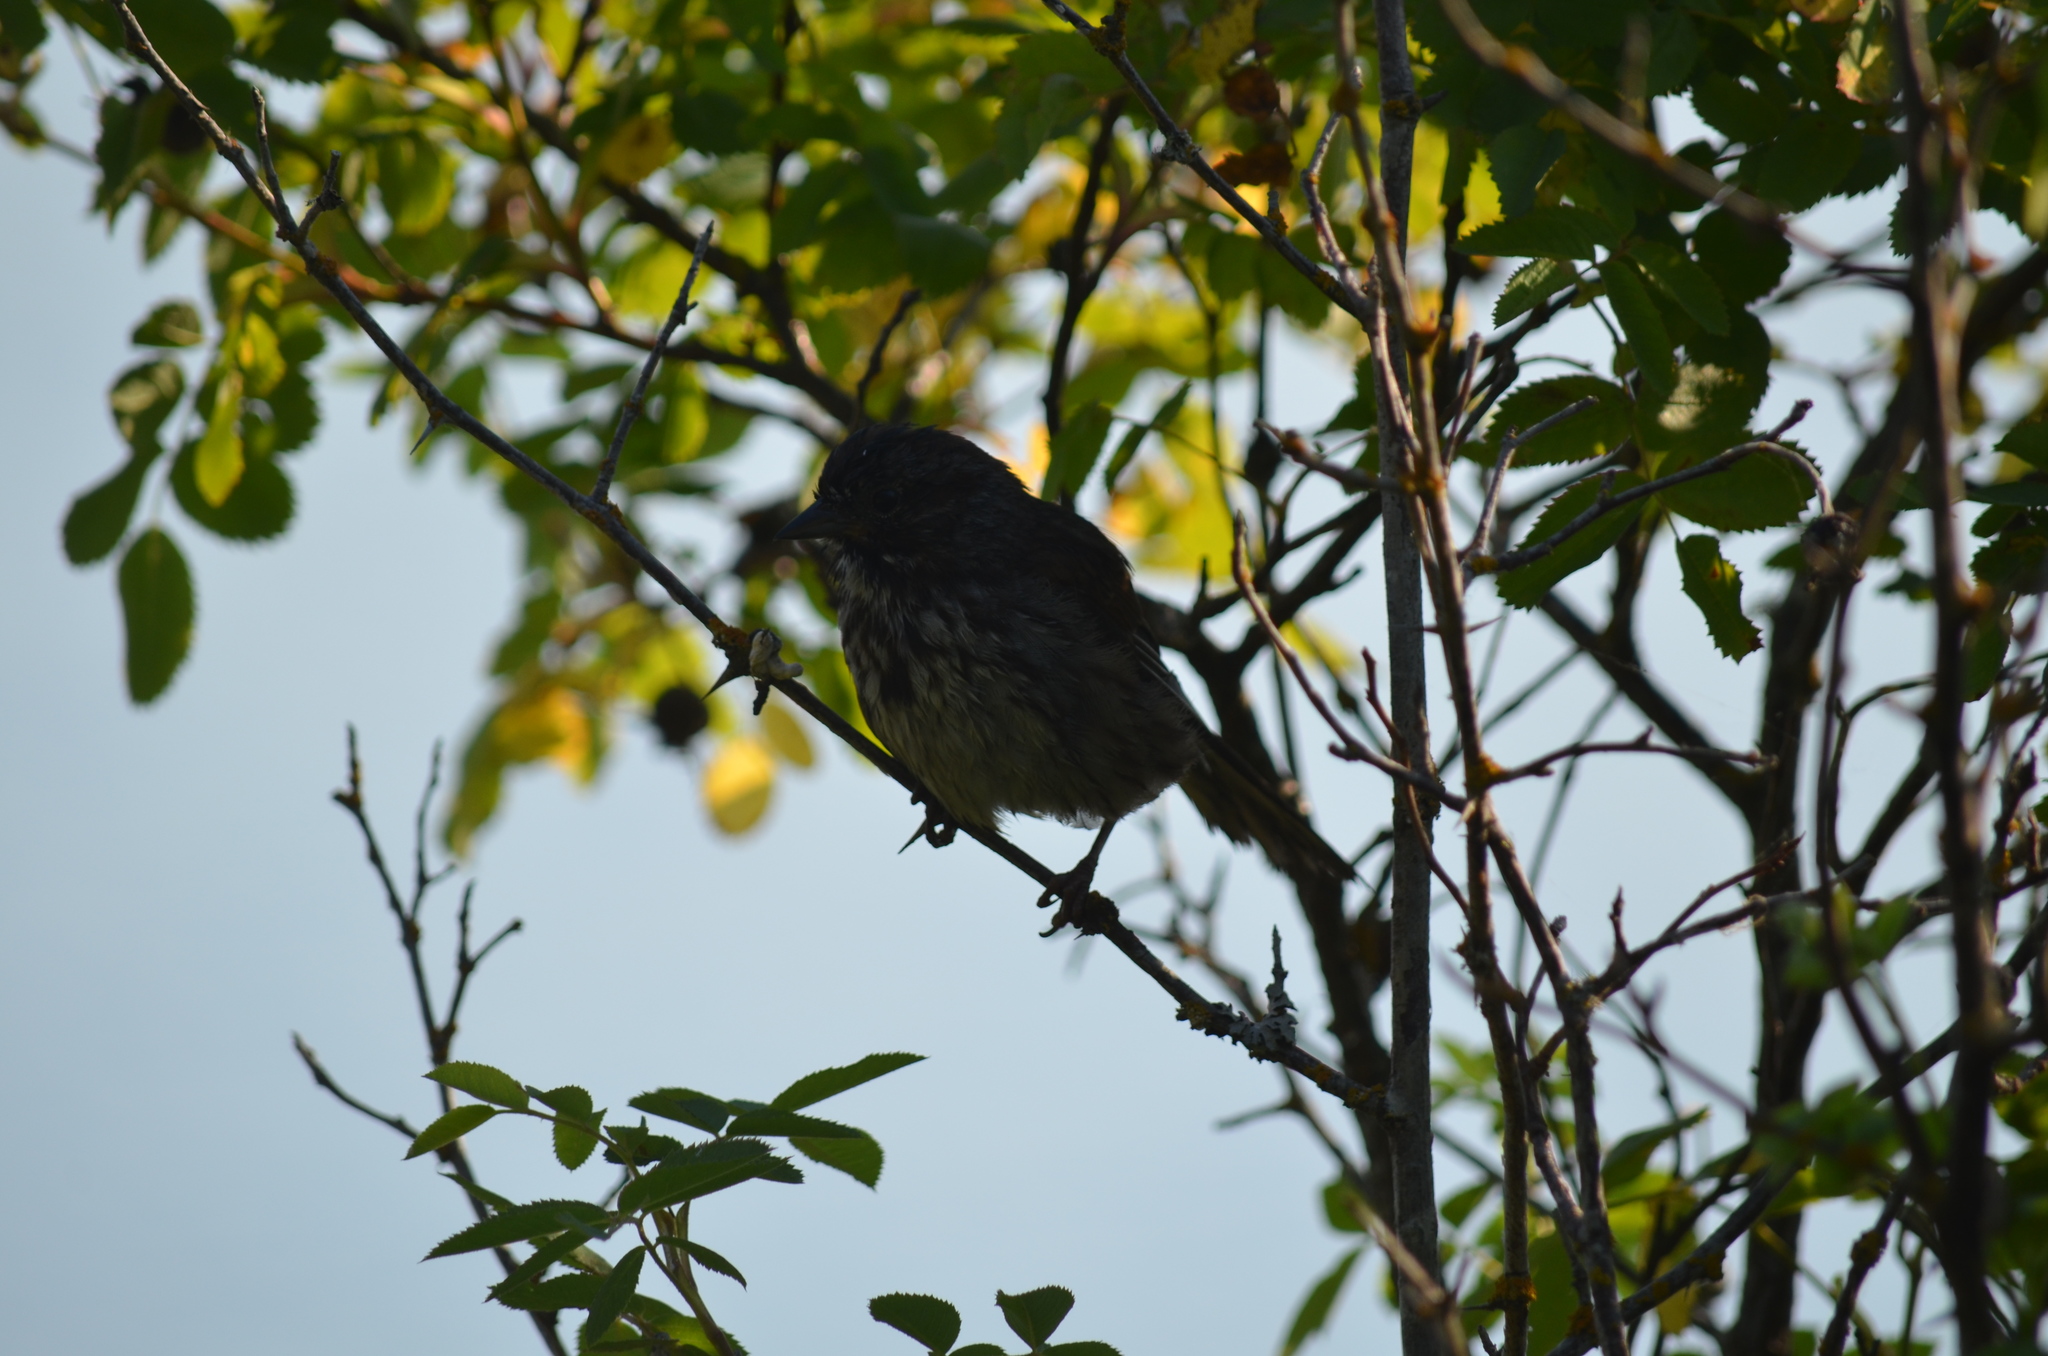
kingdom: Animalia
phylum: Chordata
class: Aves
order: Passeriformes
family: Passerellidae
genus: Melospiza
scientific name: Melospiza melodia
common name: Song sparrow
